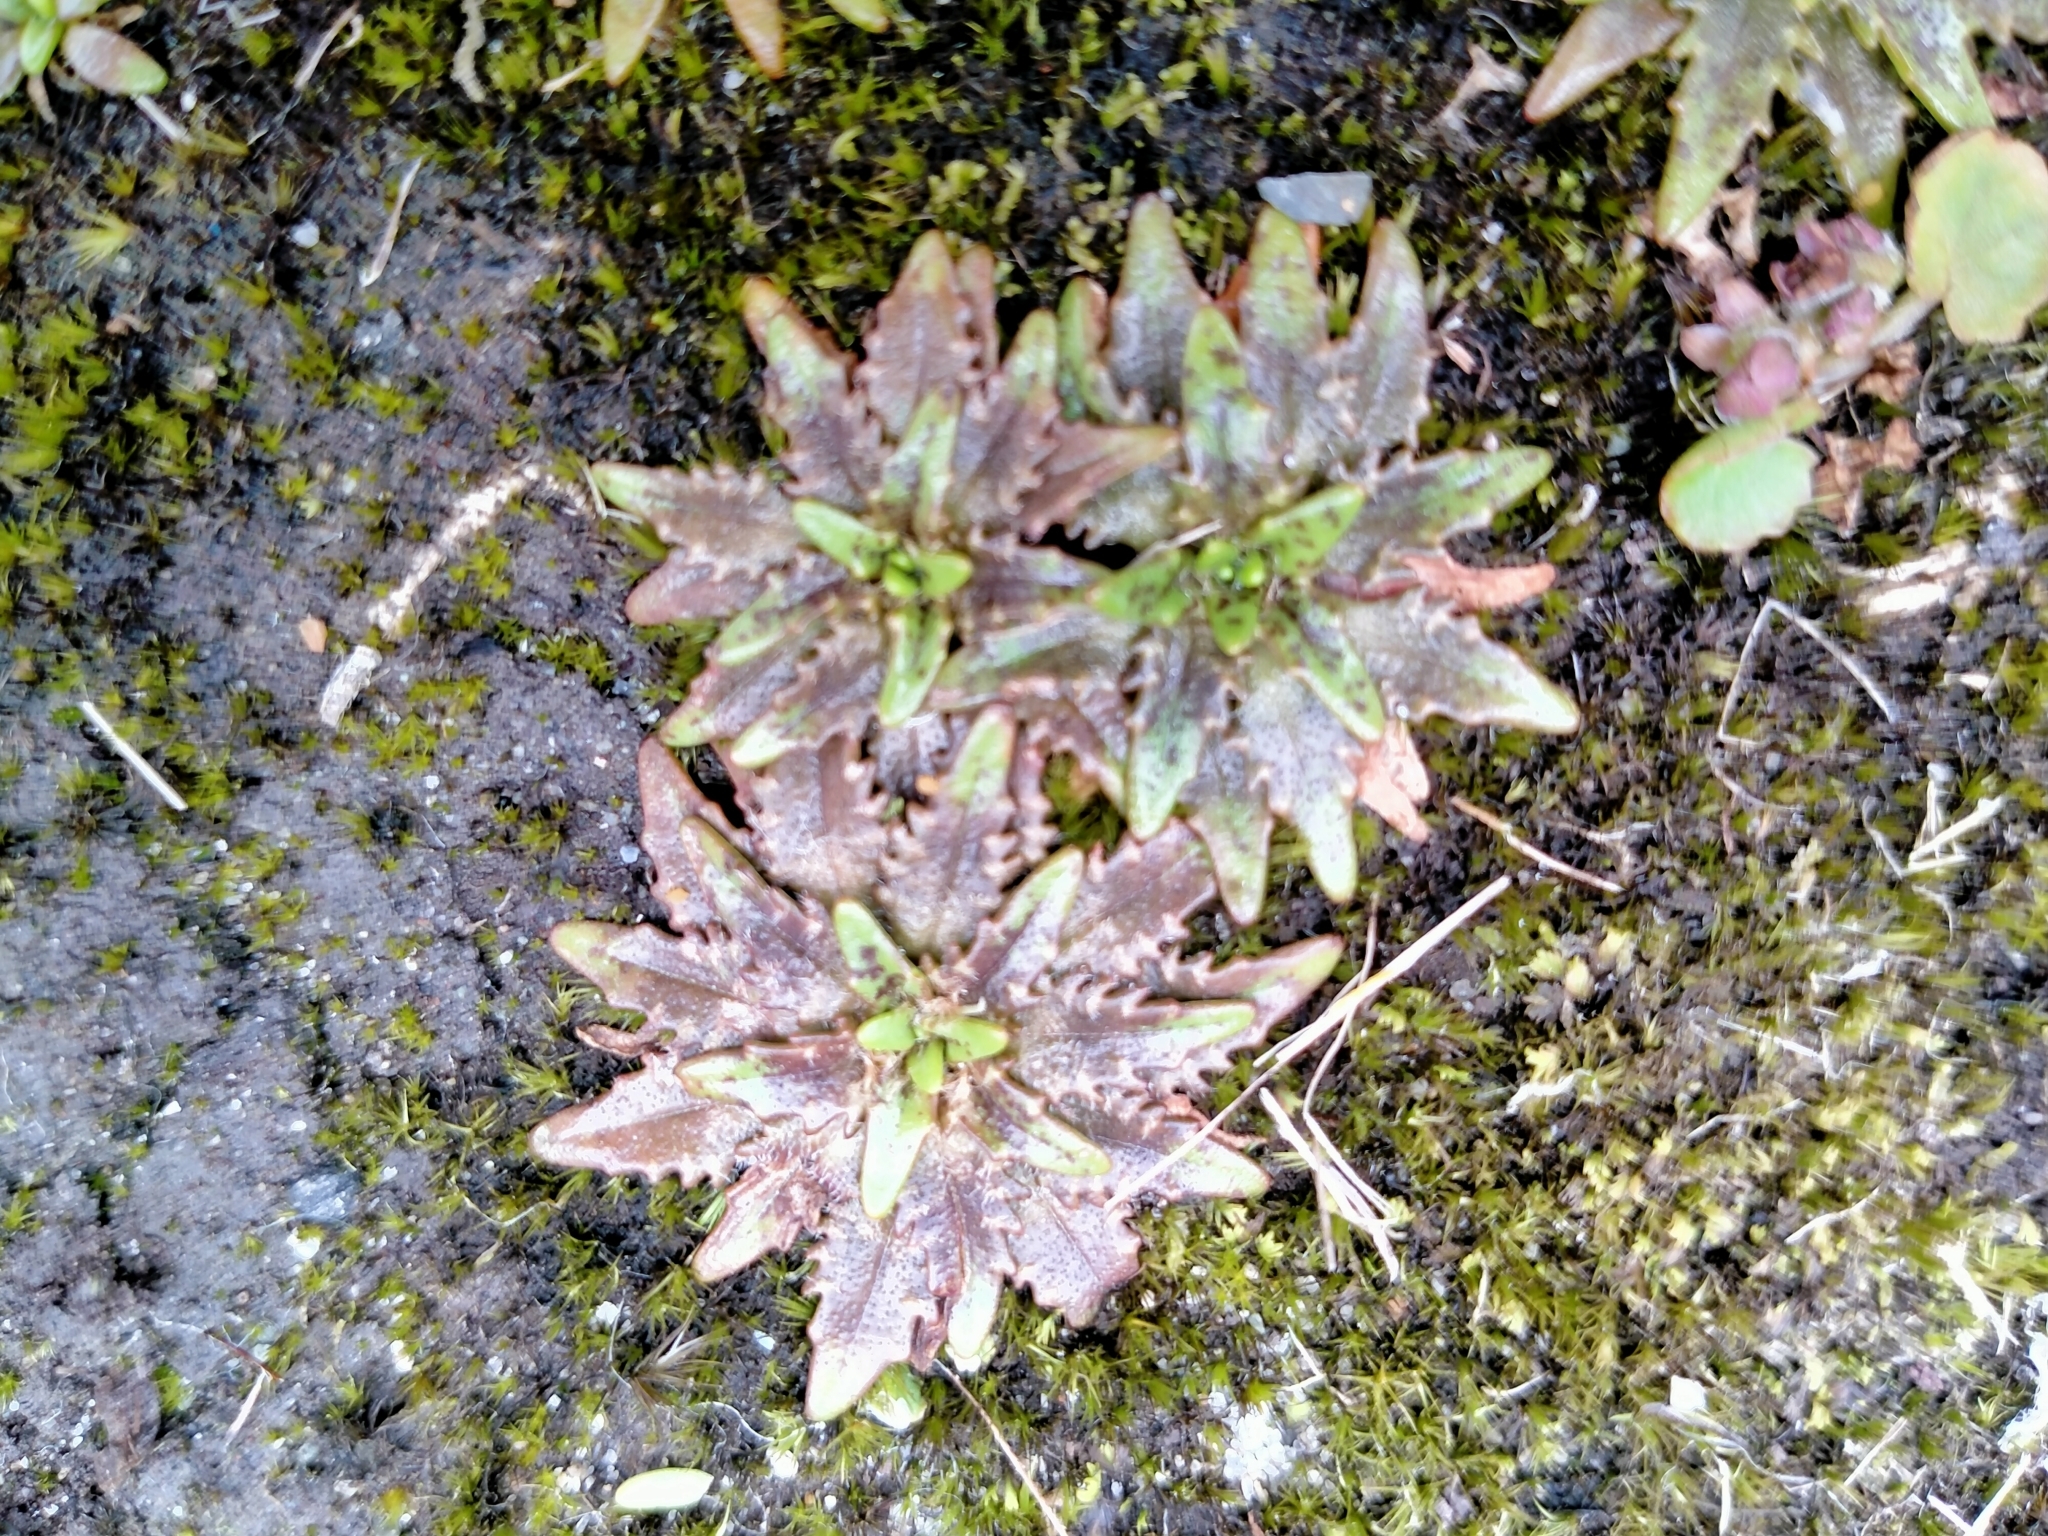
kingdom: Plantae
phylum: Tracheophyta
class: Magnoliopsida
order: Lamiales
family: Plantaginaceae
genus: Plantago
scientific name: Plantago triandra
